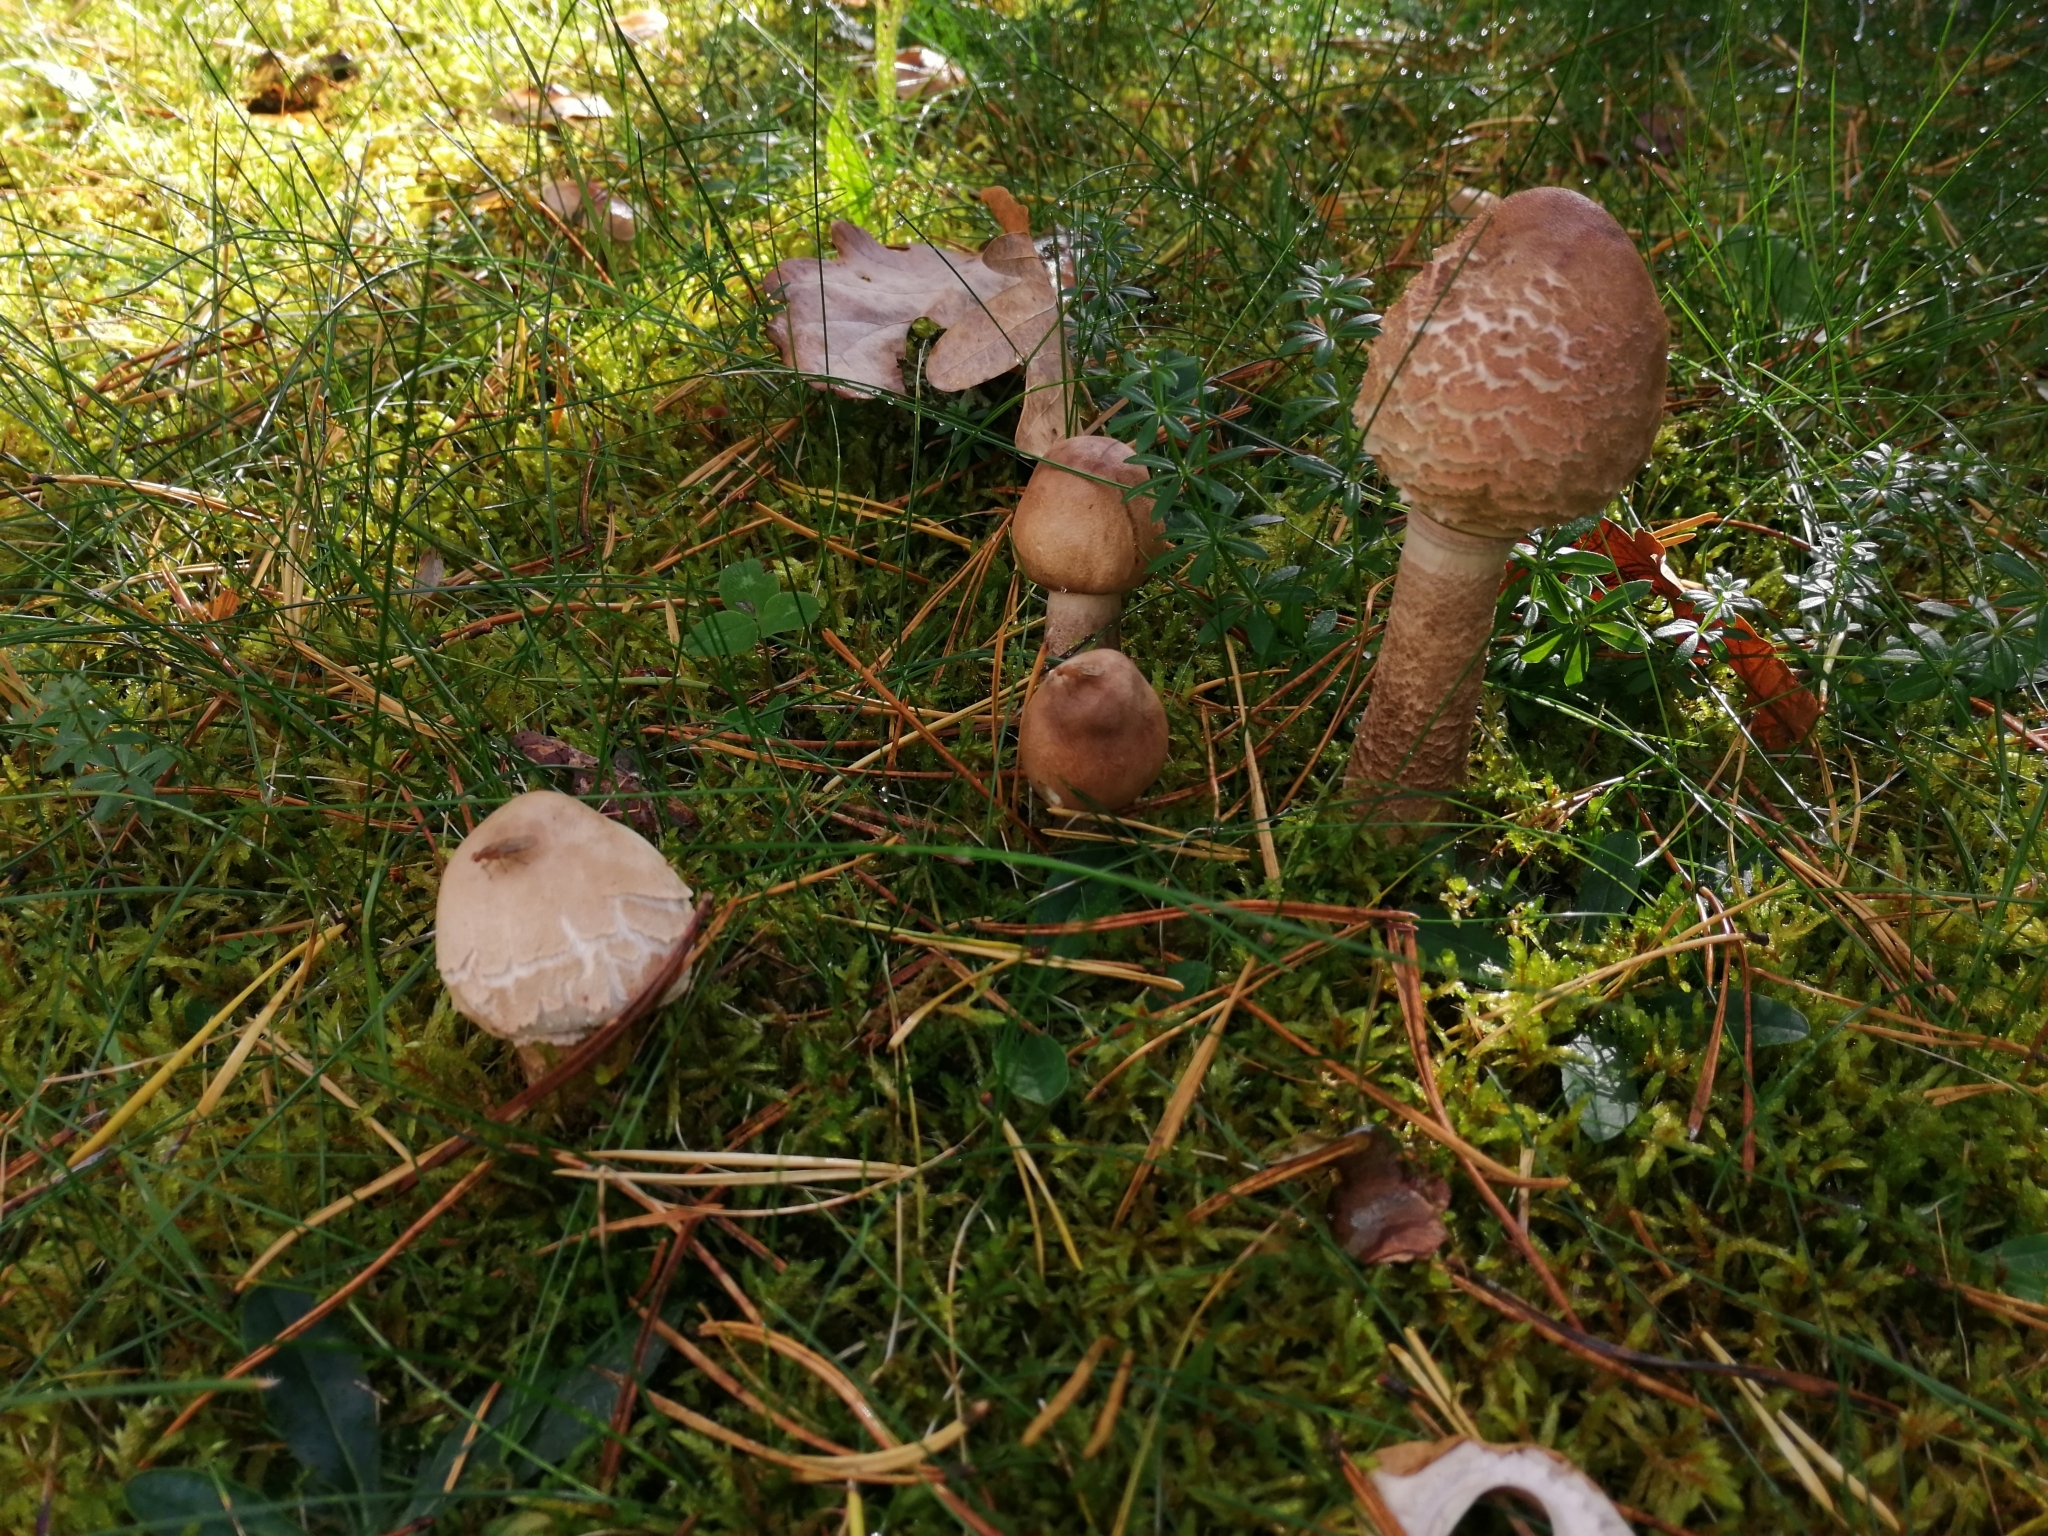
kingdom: Fungi
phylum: Basidiomycota
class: Agaricomycetes
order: Agaricales
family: Agaricaceae
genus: Macrolepiota
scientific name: Macrolepiota procera
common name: Parasol
